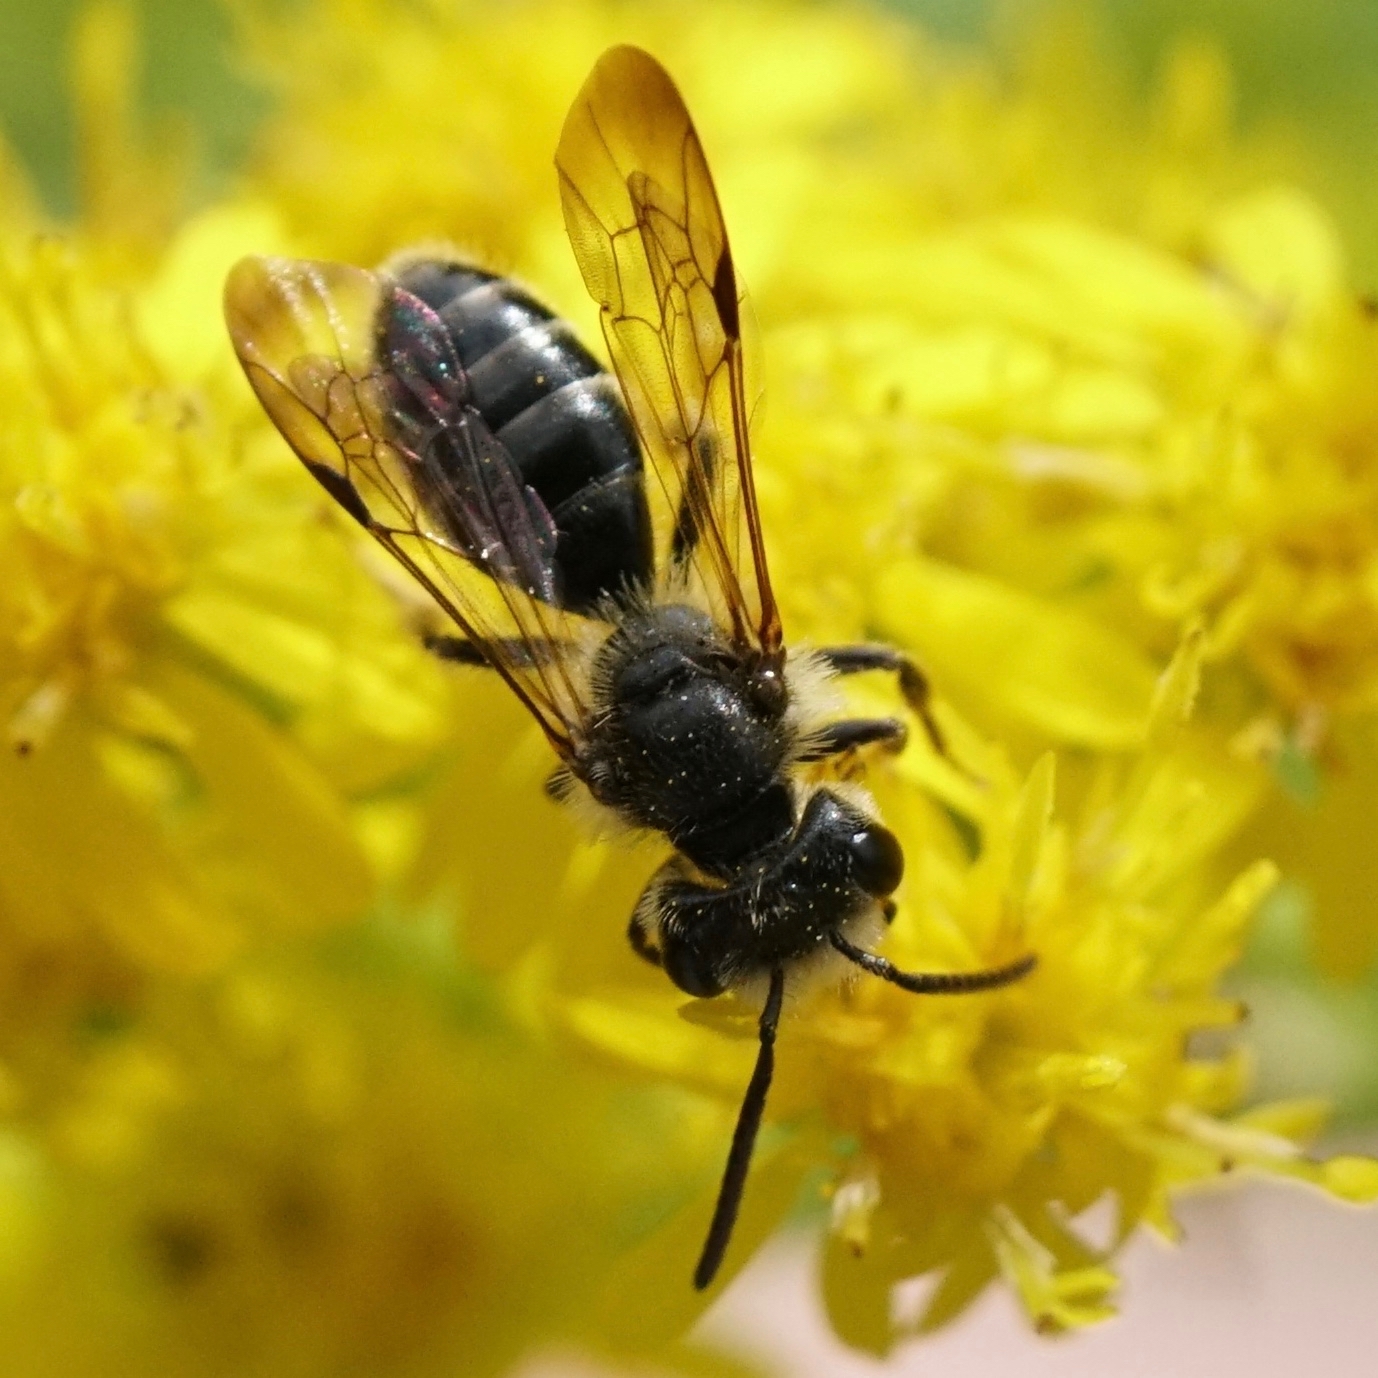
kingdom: Animalia
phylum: Arthropoda
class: Insecta
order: Hymenoptera
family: Andrenidae
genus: Andrena
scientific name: Andrena nubecula
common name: Cloudy-winged mining bee
